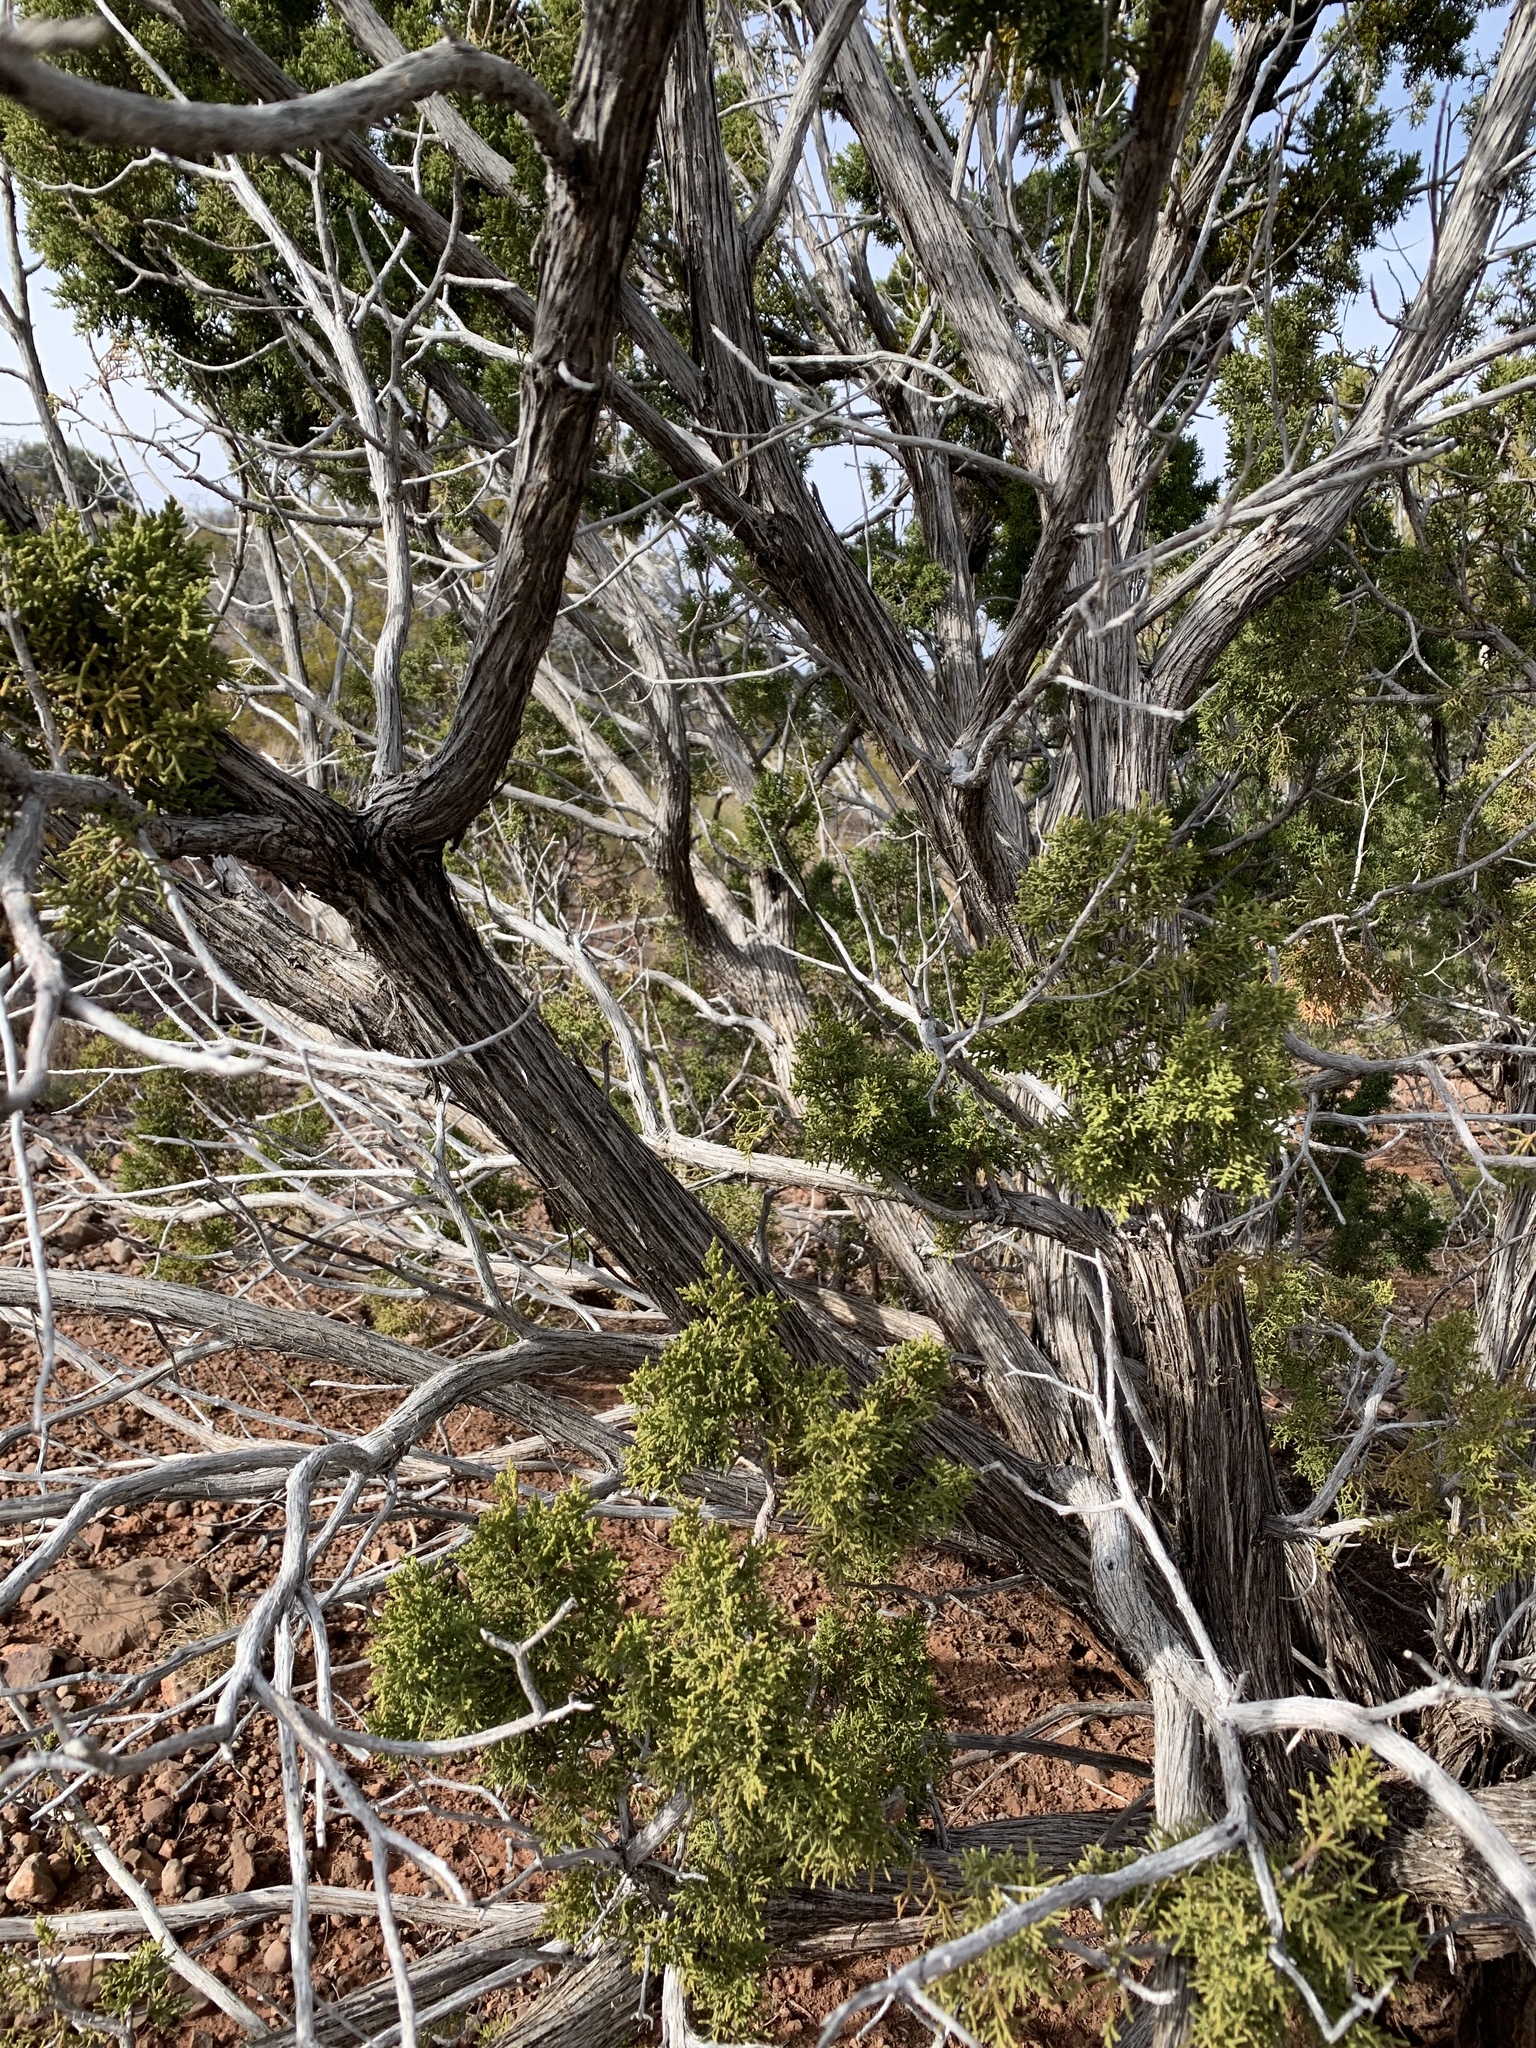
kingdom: Plantae
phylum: Tracheophyta
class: Pinopsida
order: Pinales
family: Cupressaceae
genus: Juniperus
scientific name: Juniperus monosperma
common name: One-seed juniper
